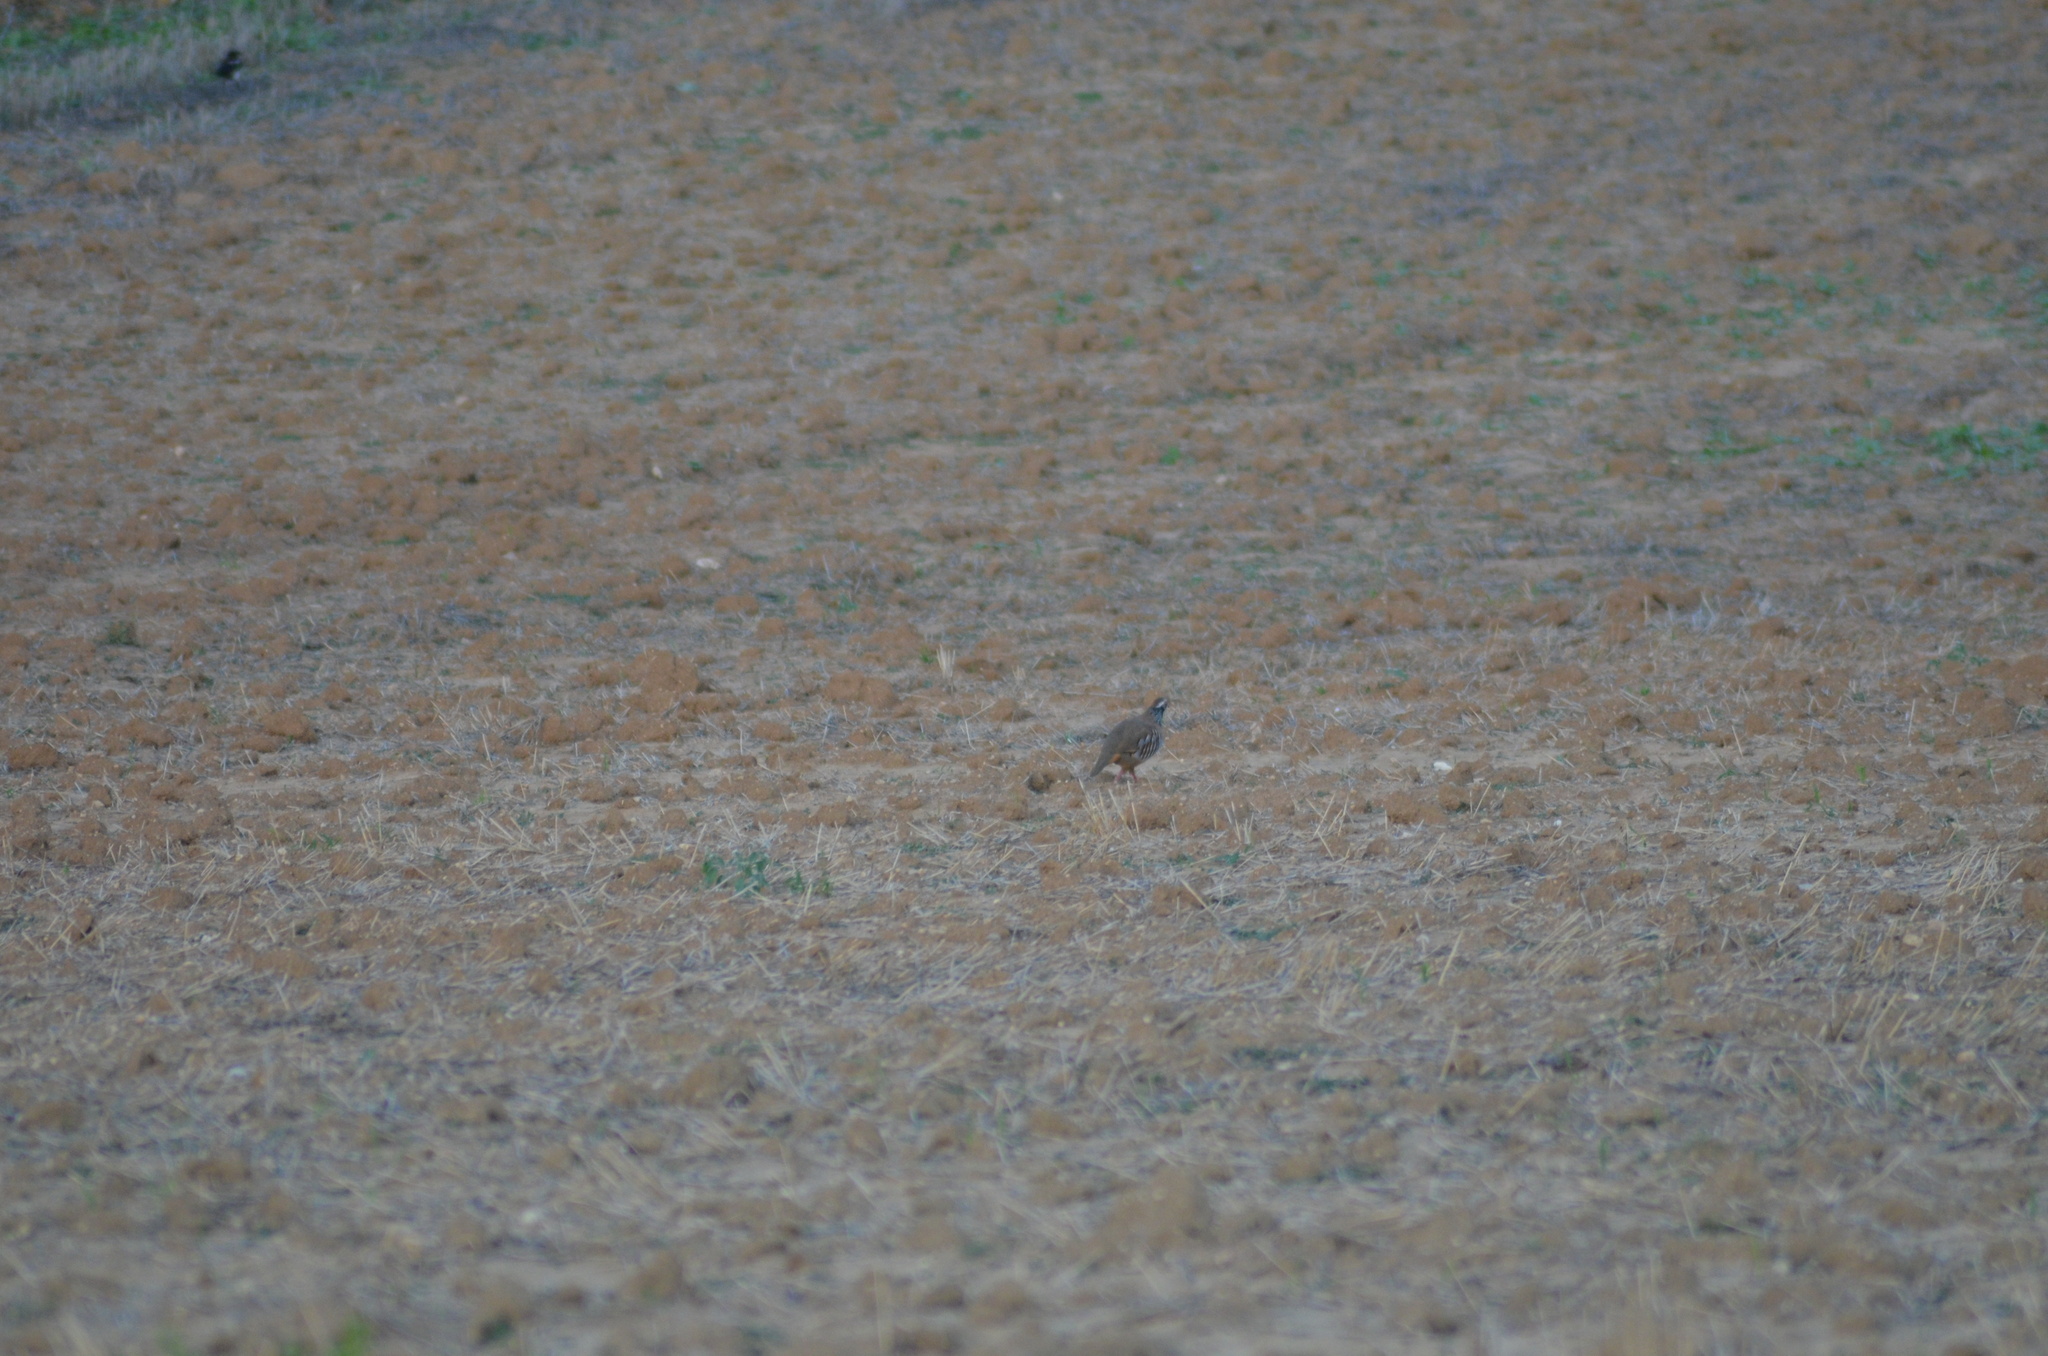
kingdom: Animalia
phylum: Chordata
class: Aves
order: Galliformes
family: Phasianidae
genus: Alectoris
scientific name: Alectoris rufa
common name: Red-legged partridge
